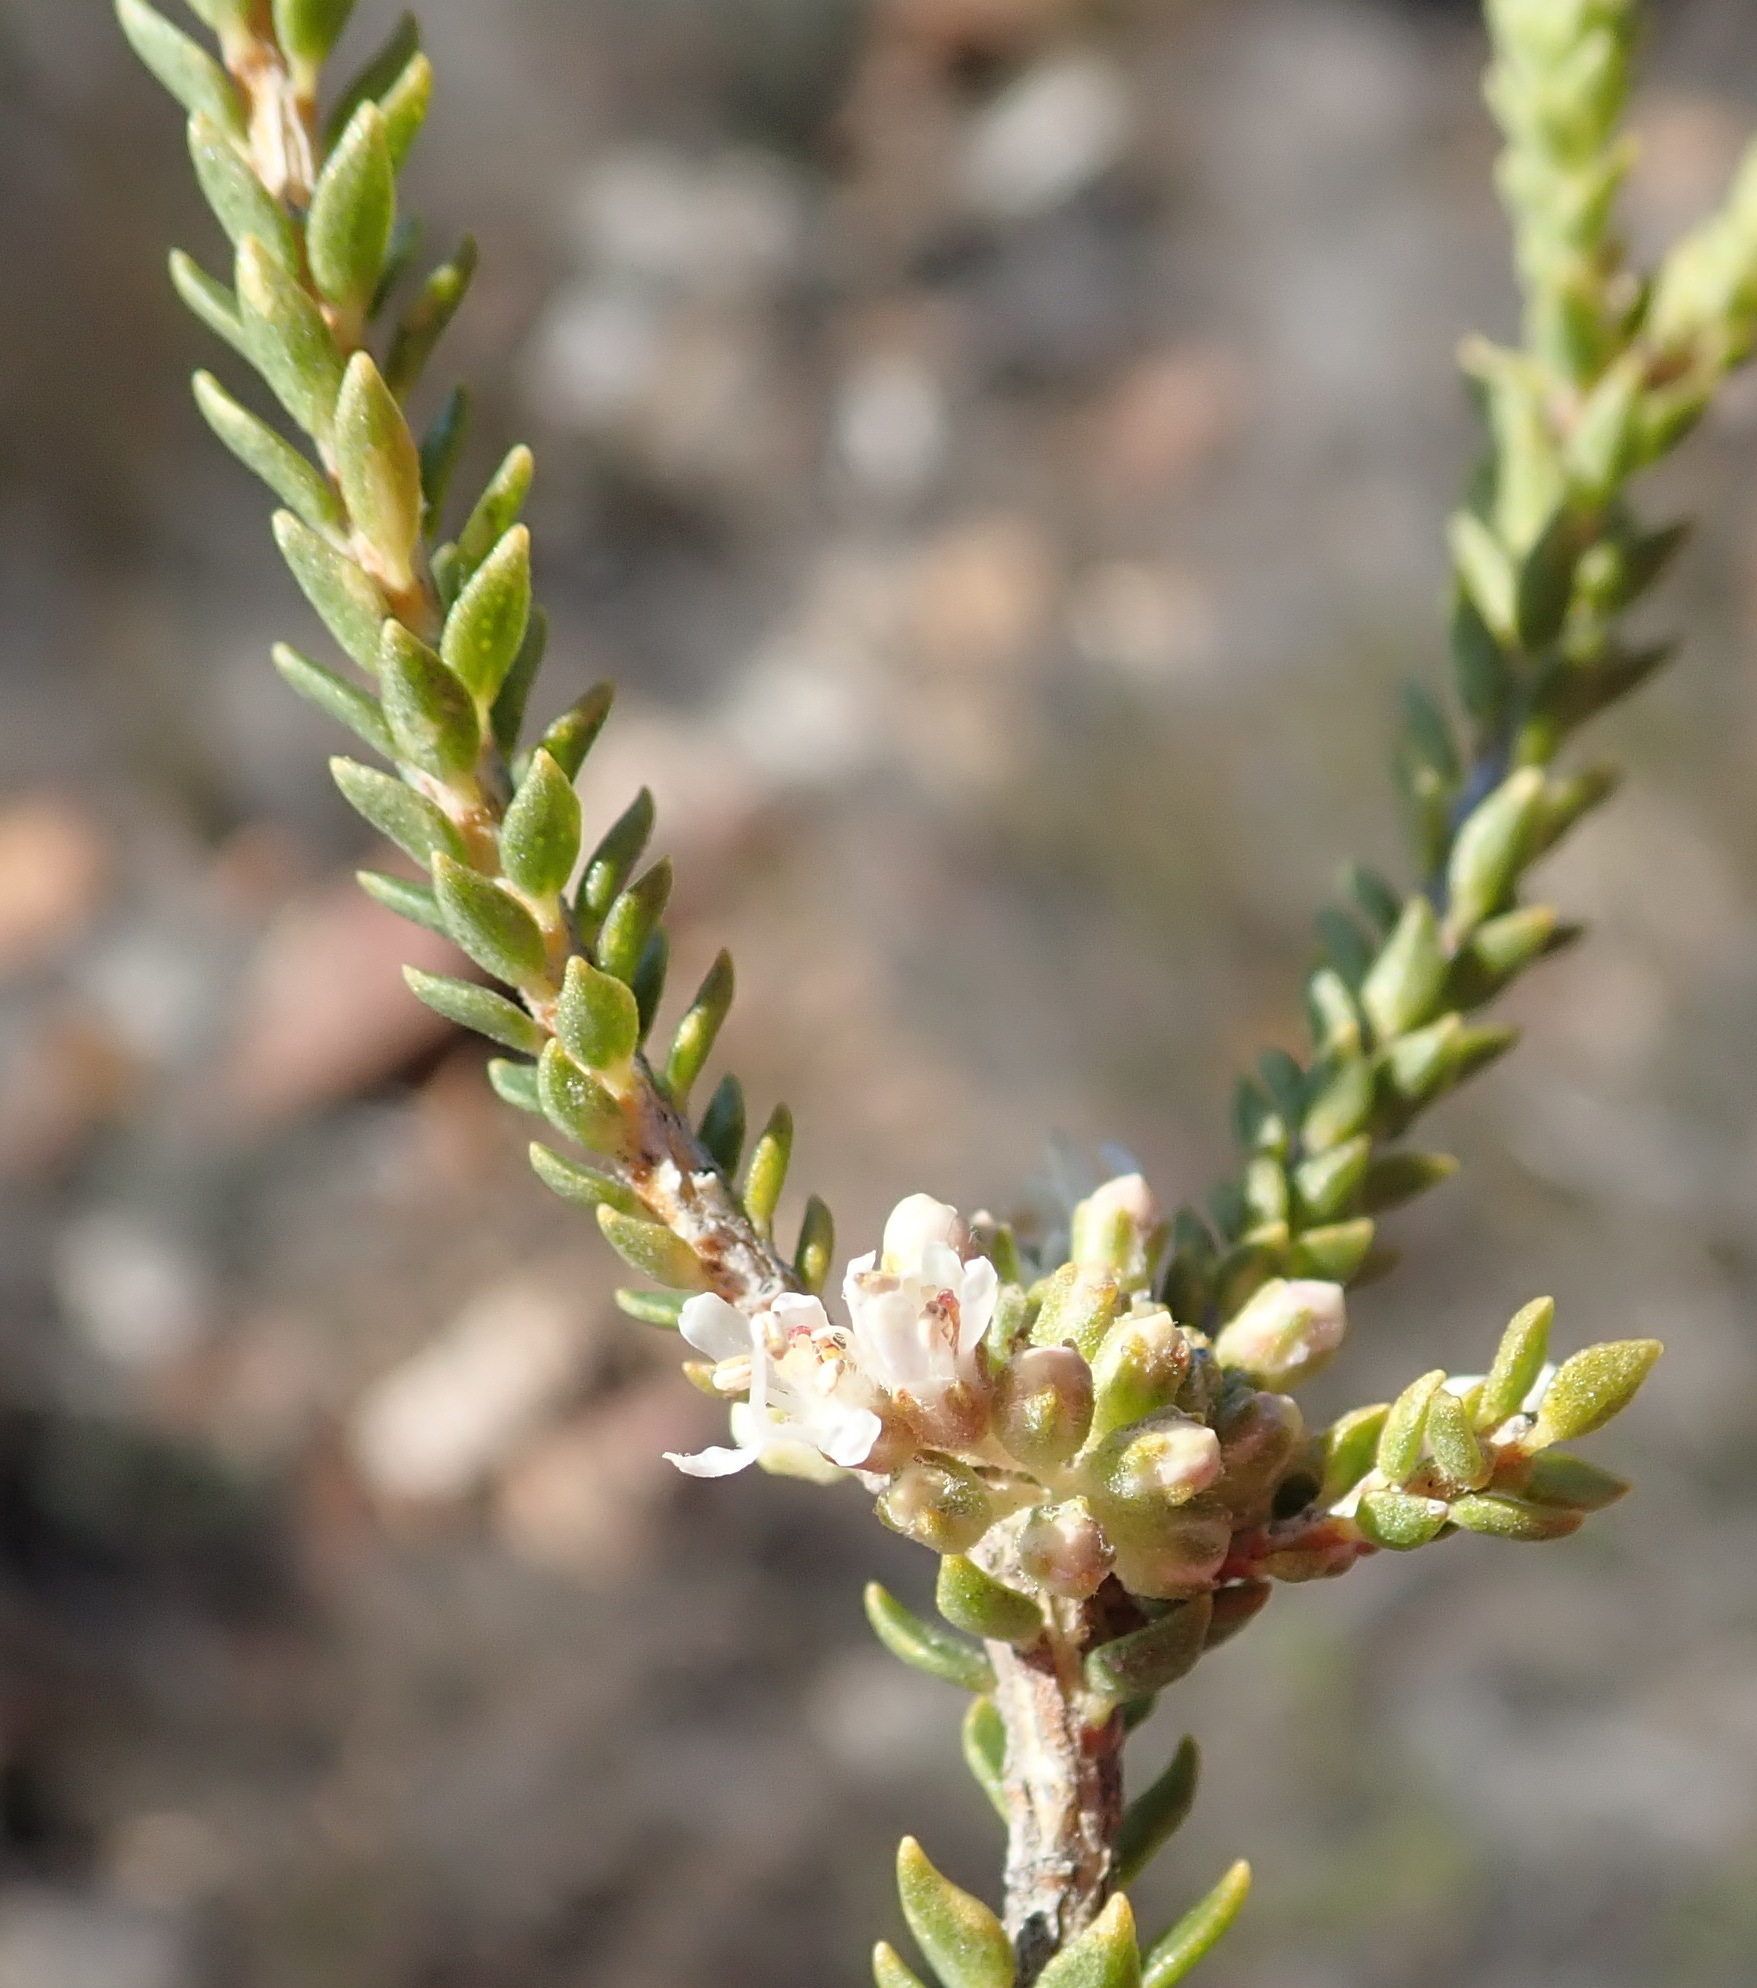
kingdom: Plantae
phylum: Tracheophyta
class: Magnoliopsida
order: Sapindales
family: Rutaceae
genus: Agathosma
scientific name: Agathosma roodebergensis
